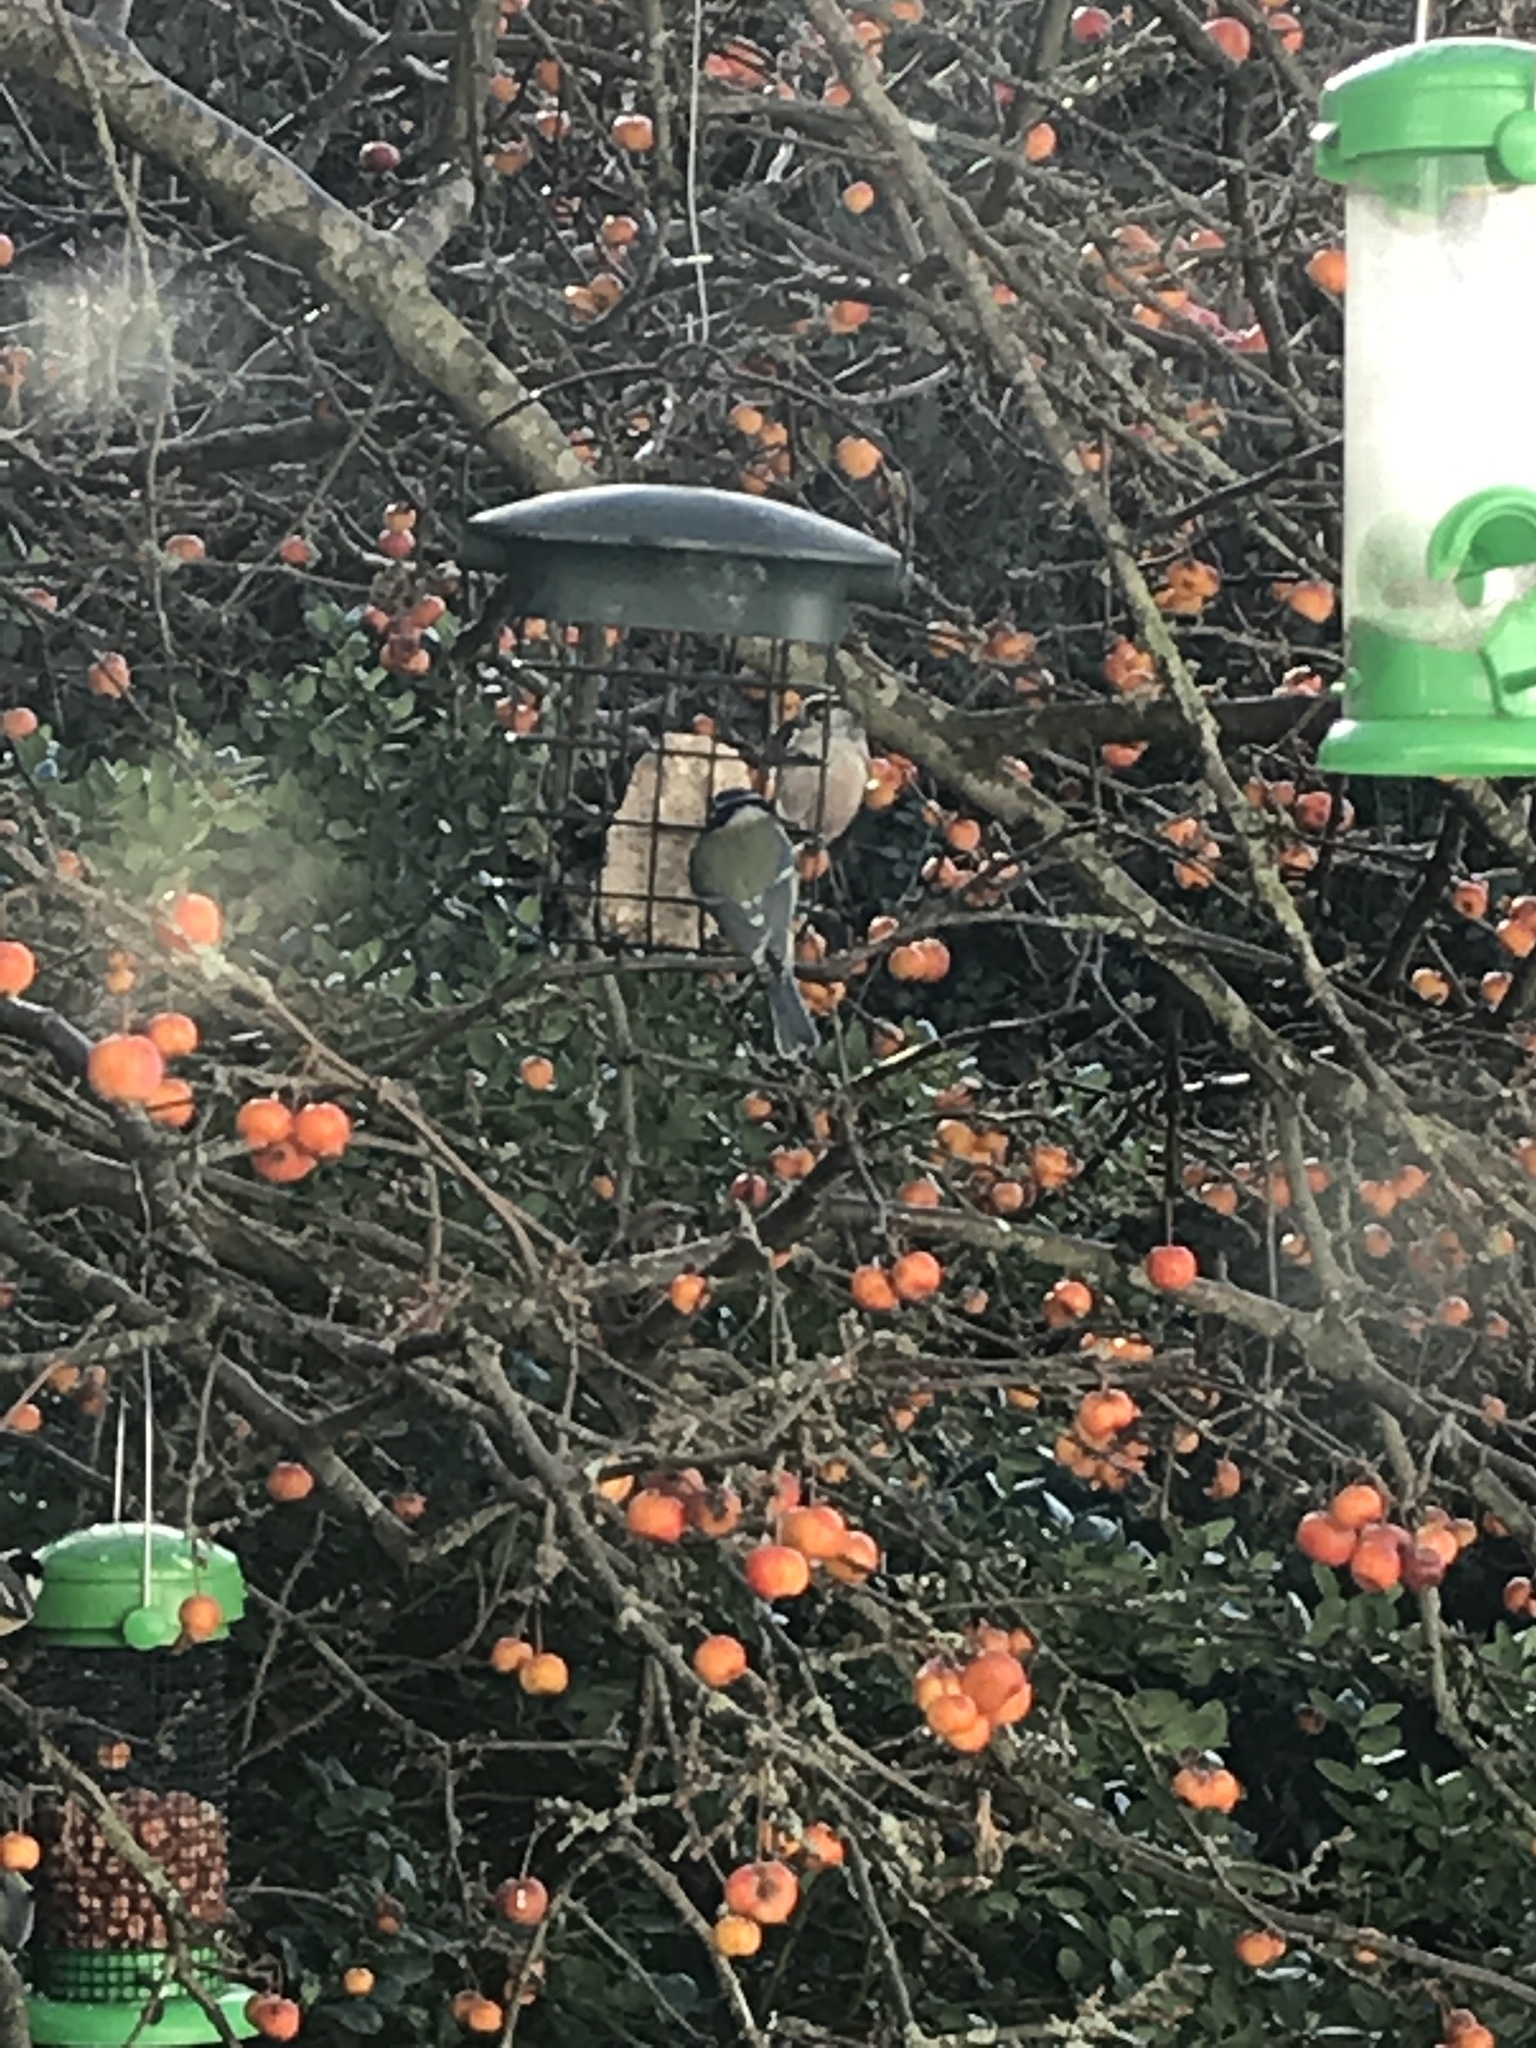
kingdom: Animalia
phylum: Chordata
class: Aves
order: Passeriformes
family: Aegithalidae
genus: Aegithalos
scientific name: Aegithalos caudatus
